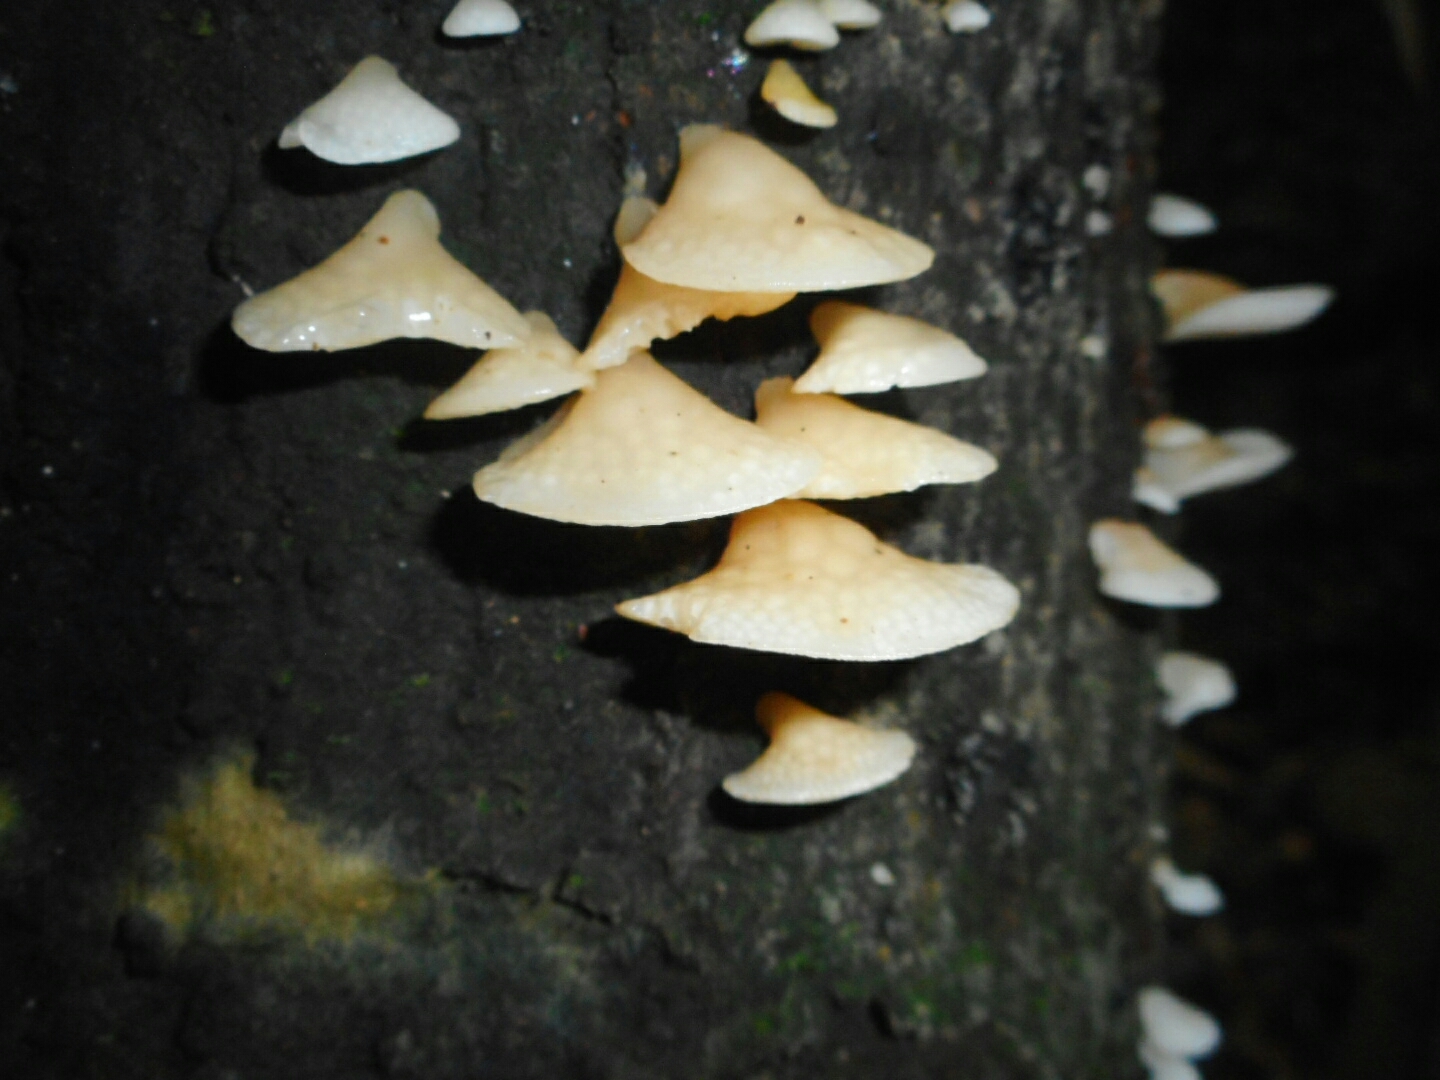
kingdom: Fungi
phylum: Basidiomycota
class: Agaricomycetes
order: Agaricales
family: Mycenaceae
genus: Favolaschia
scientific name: Favolaschia pustulosa
